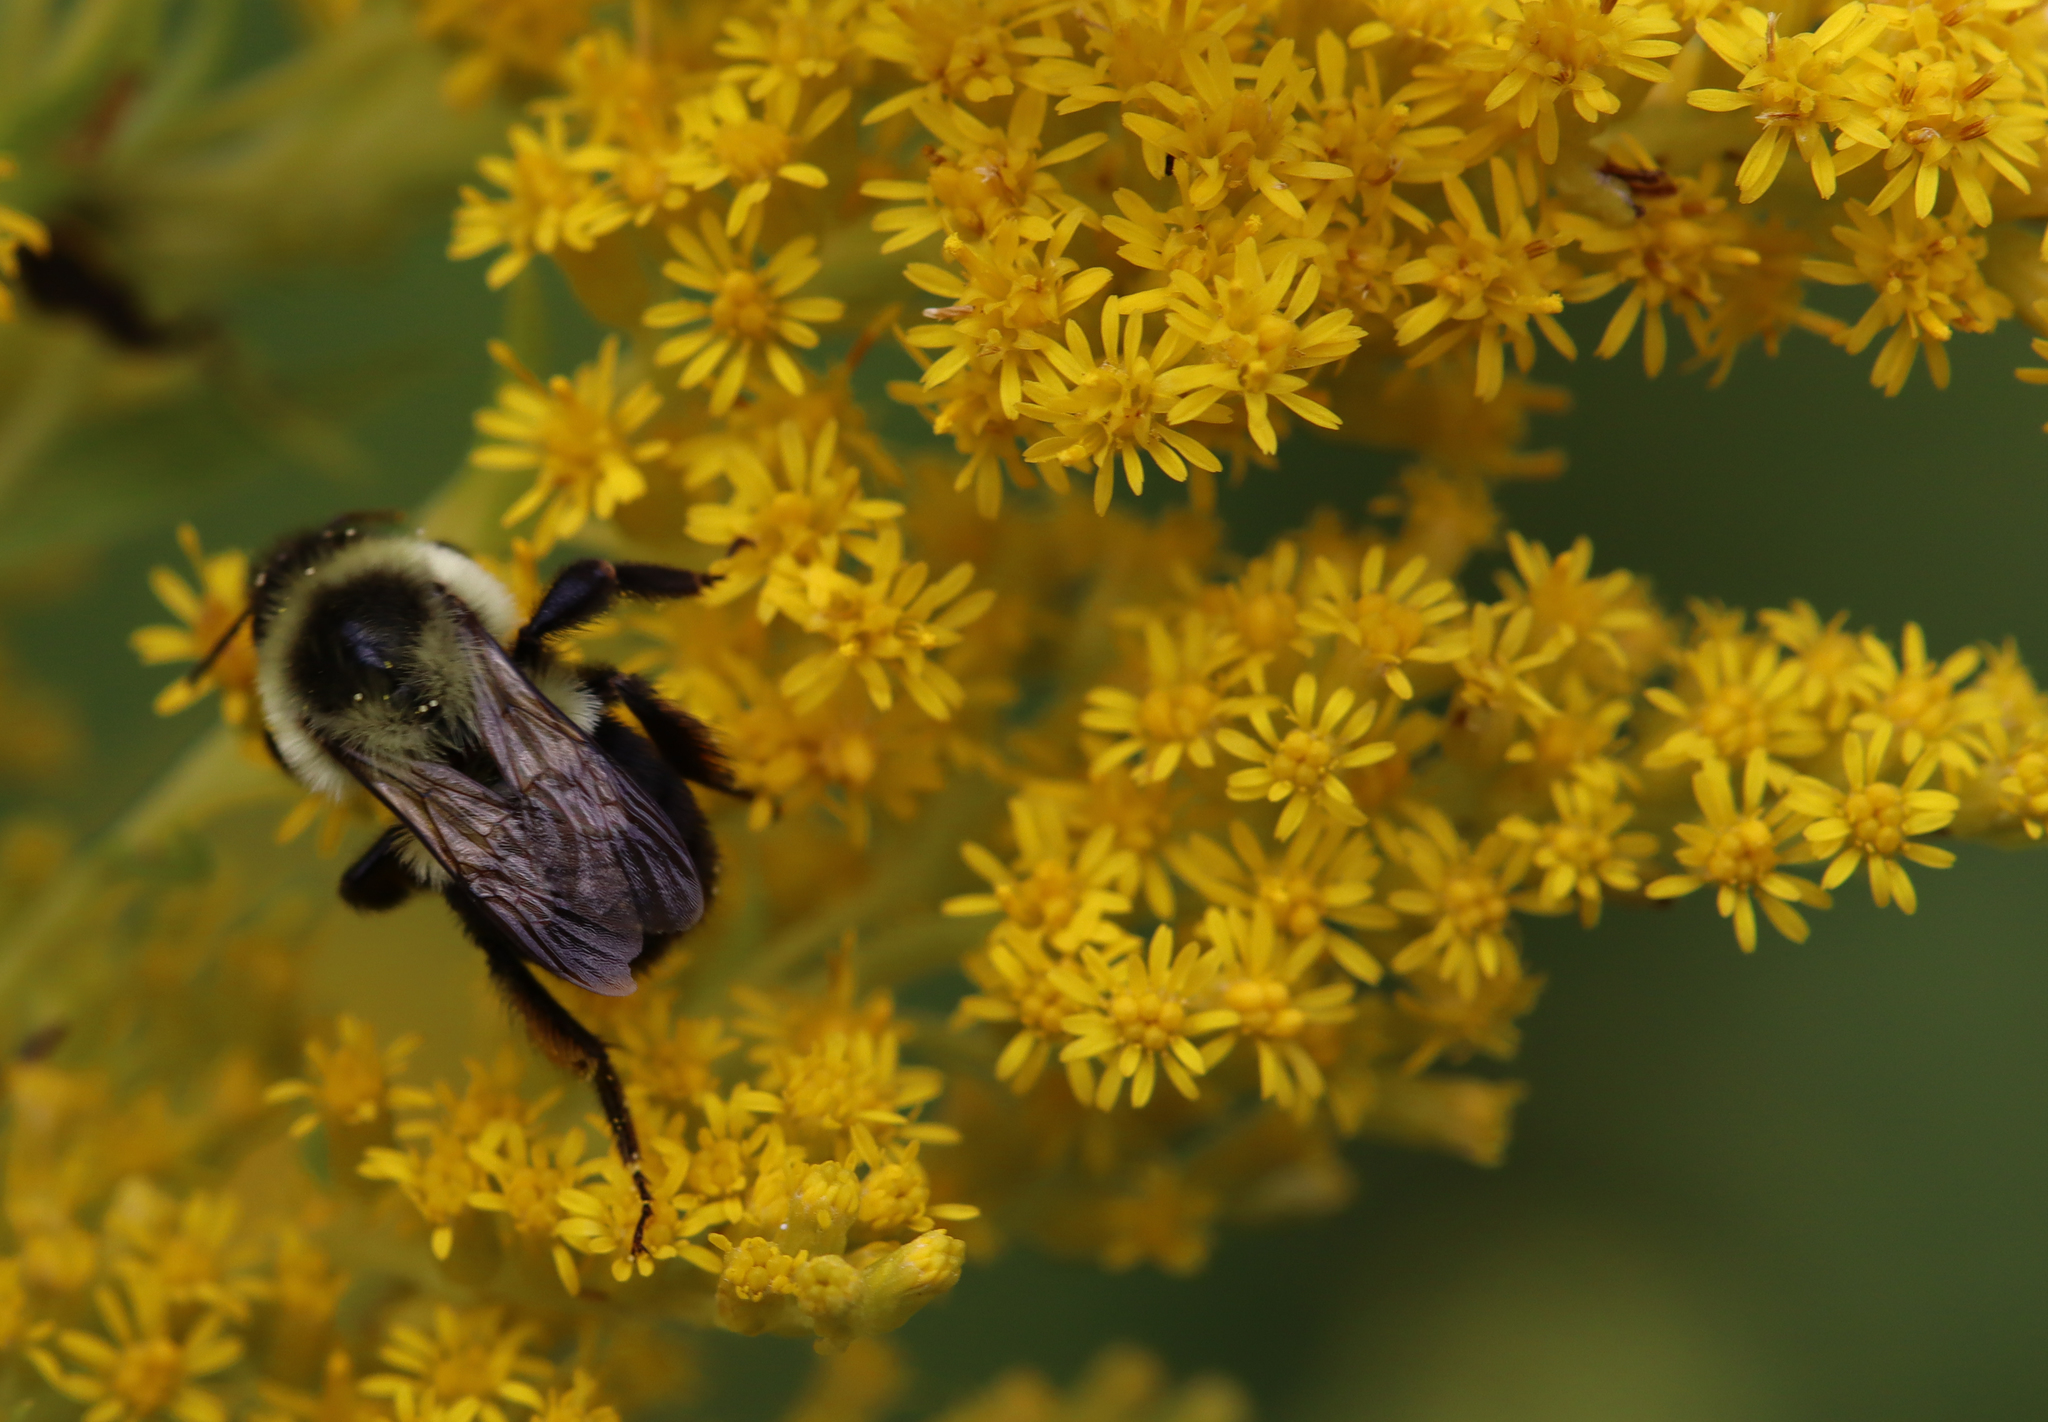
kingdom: Animalia
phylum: Arthropoda
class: Insecta
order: Hymenoptera
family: Apidae
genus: Bombus
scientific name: Bombus impatiens
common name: Common eastern bumble bee
